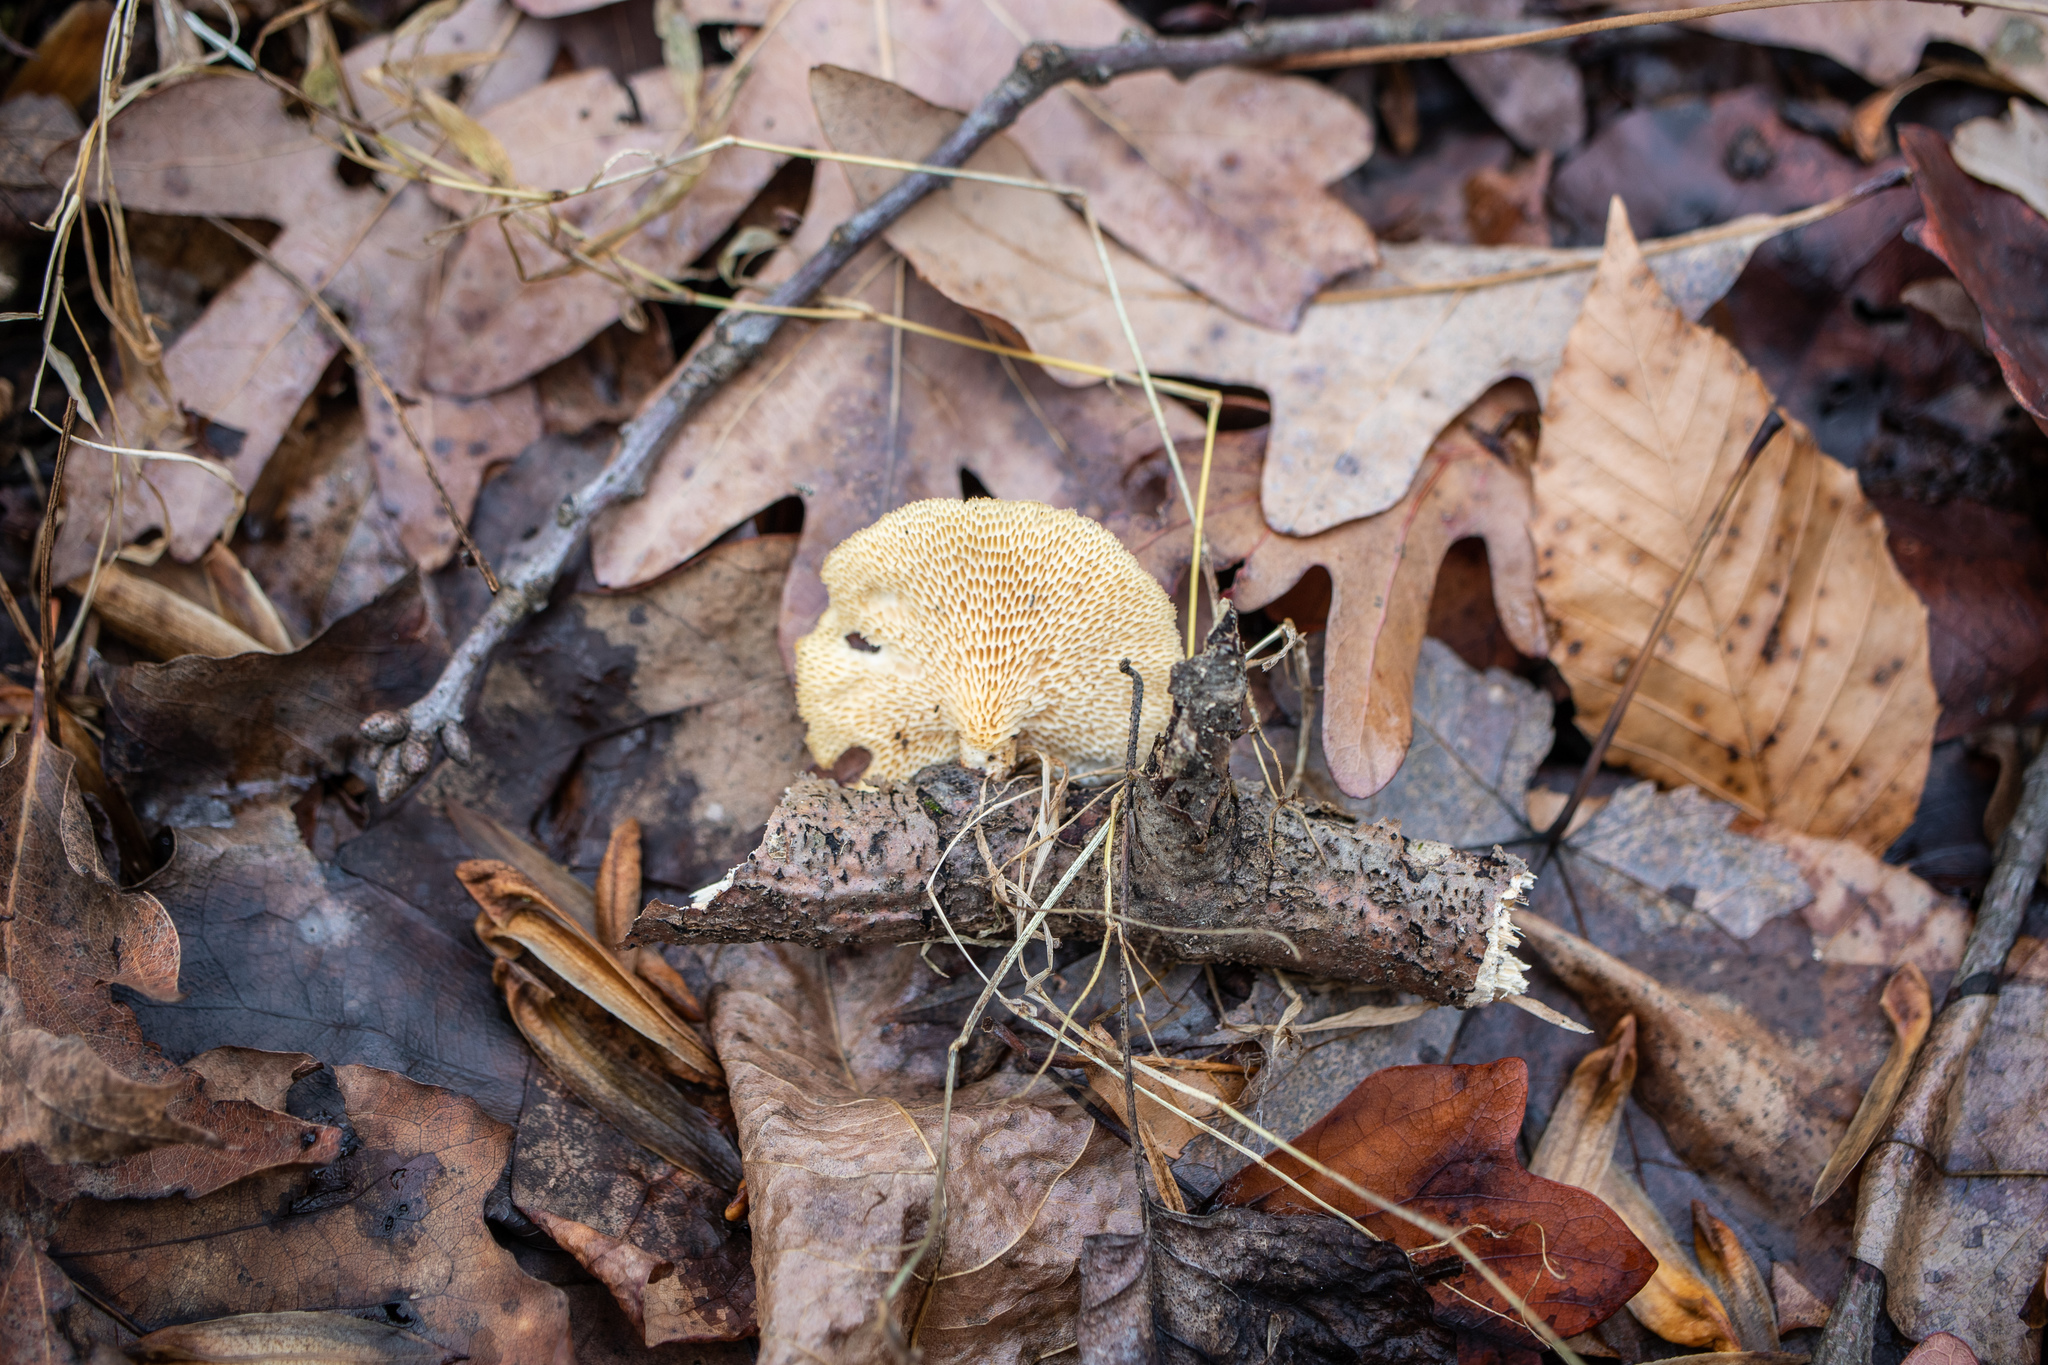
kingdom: Fungi
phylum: Basidiomycota
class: Agaricomycetes
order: Polyporales
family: Polyporaceae
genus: Neofavolus
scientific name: Neofavolus alveolaris
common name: Hexagonal-pored polypore
